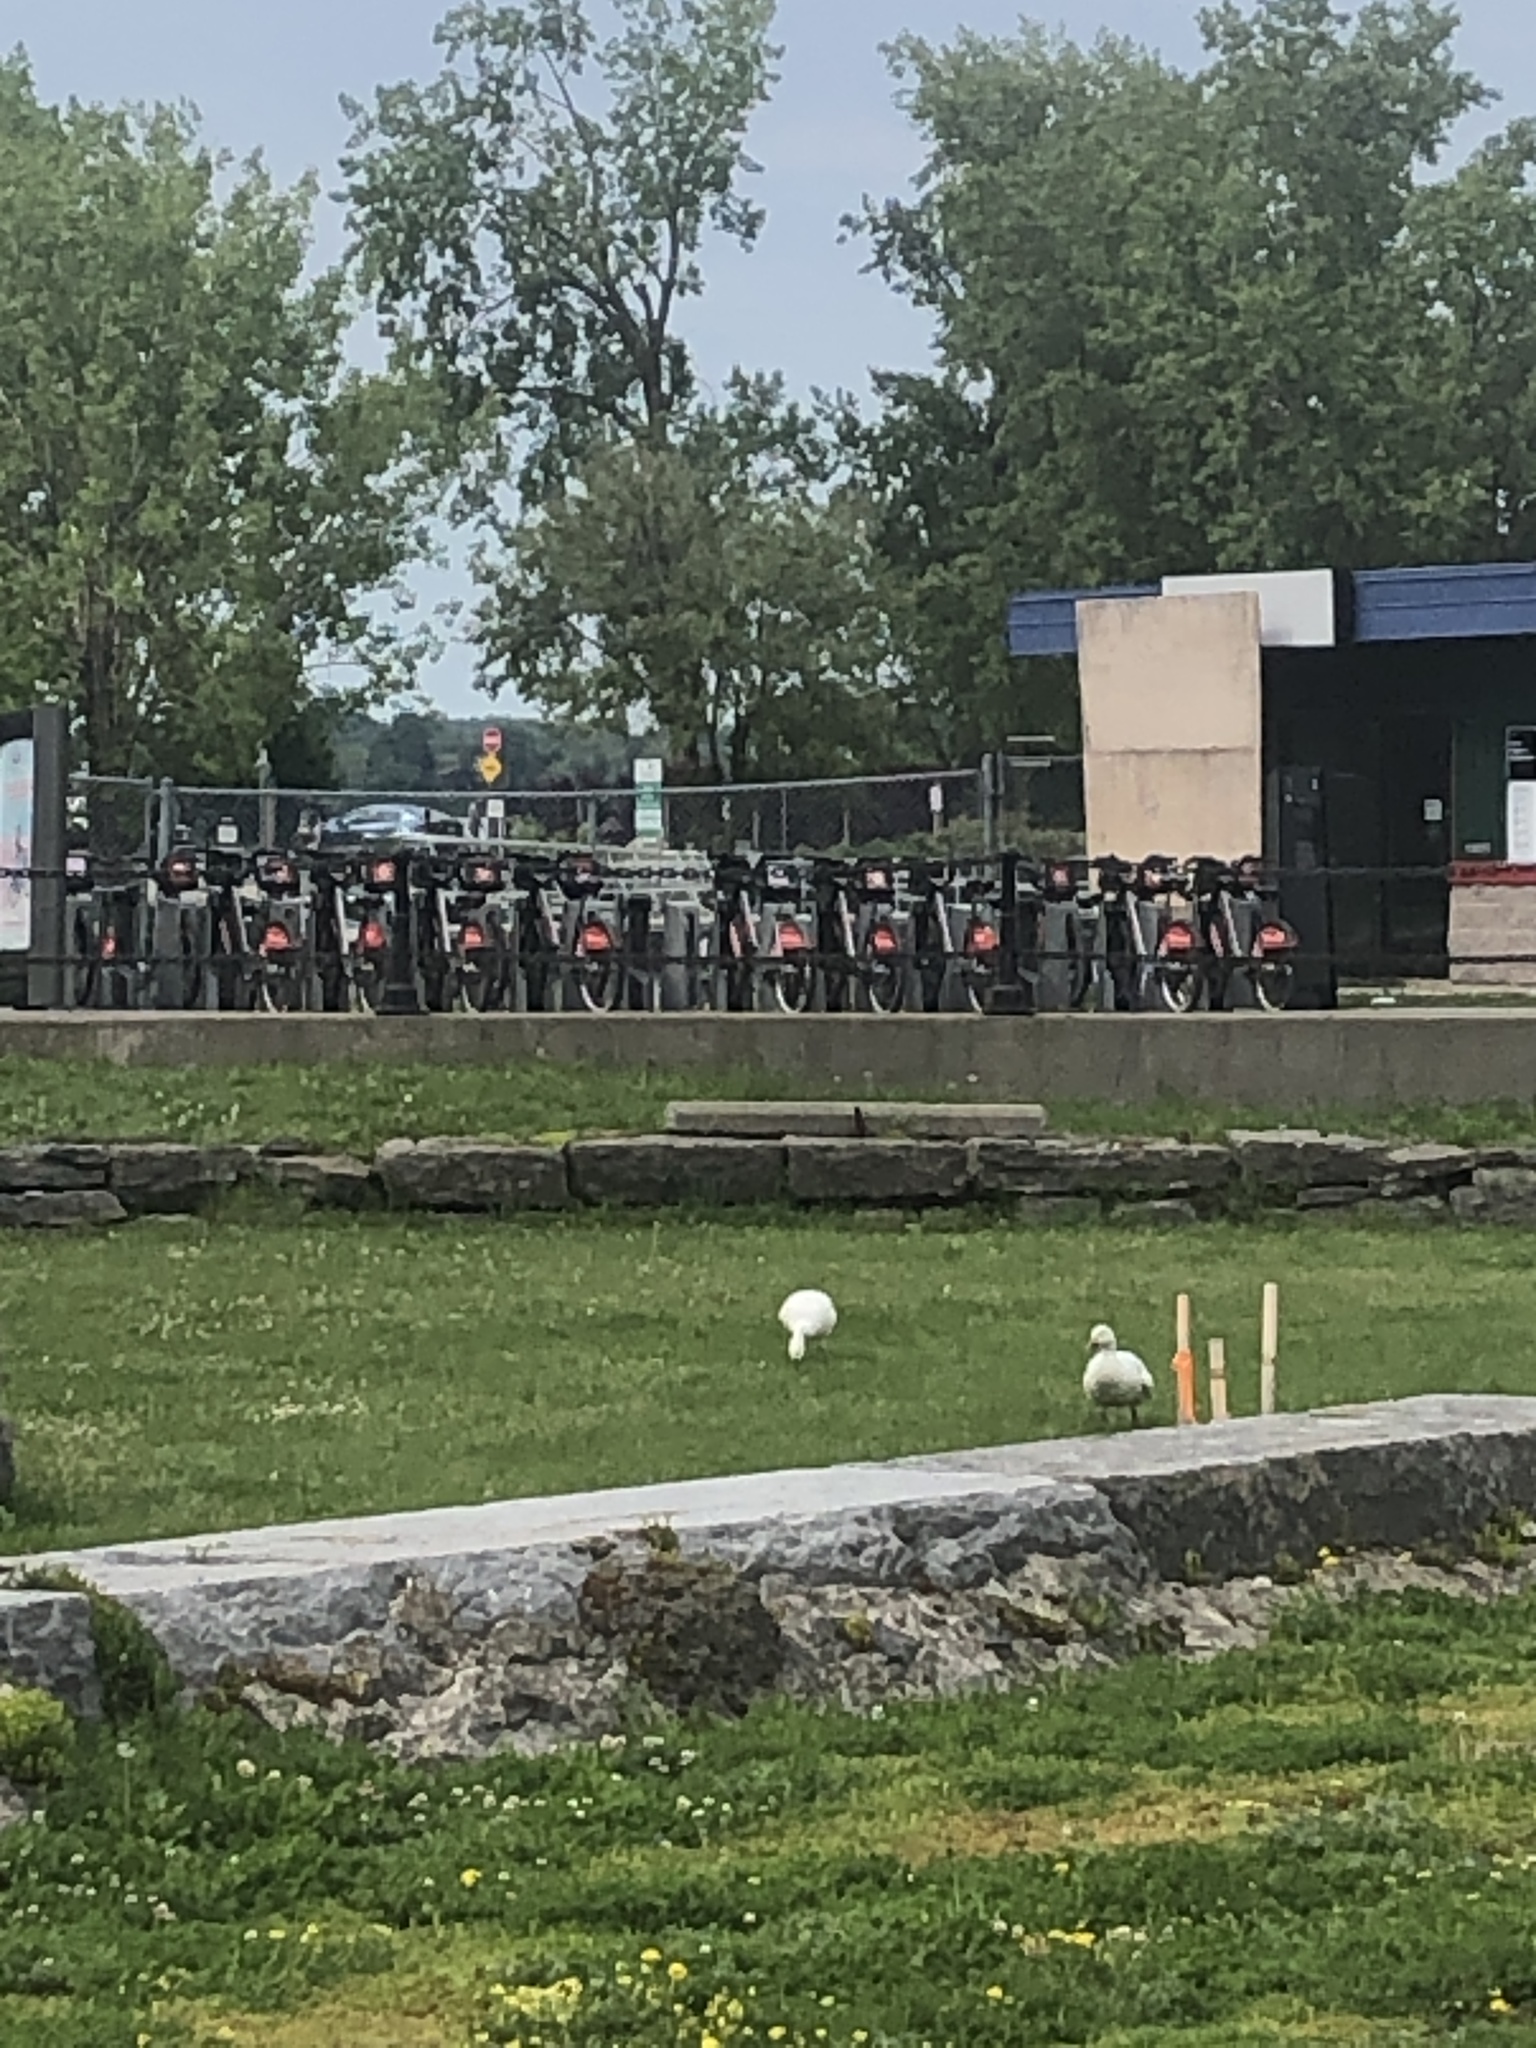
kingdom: Animalia
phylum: Chordata
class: Aves
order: Anseriformes
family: Anatidae
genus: Anser
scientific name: Anser caerulescens
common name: Snow goose
